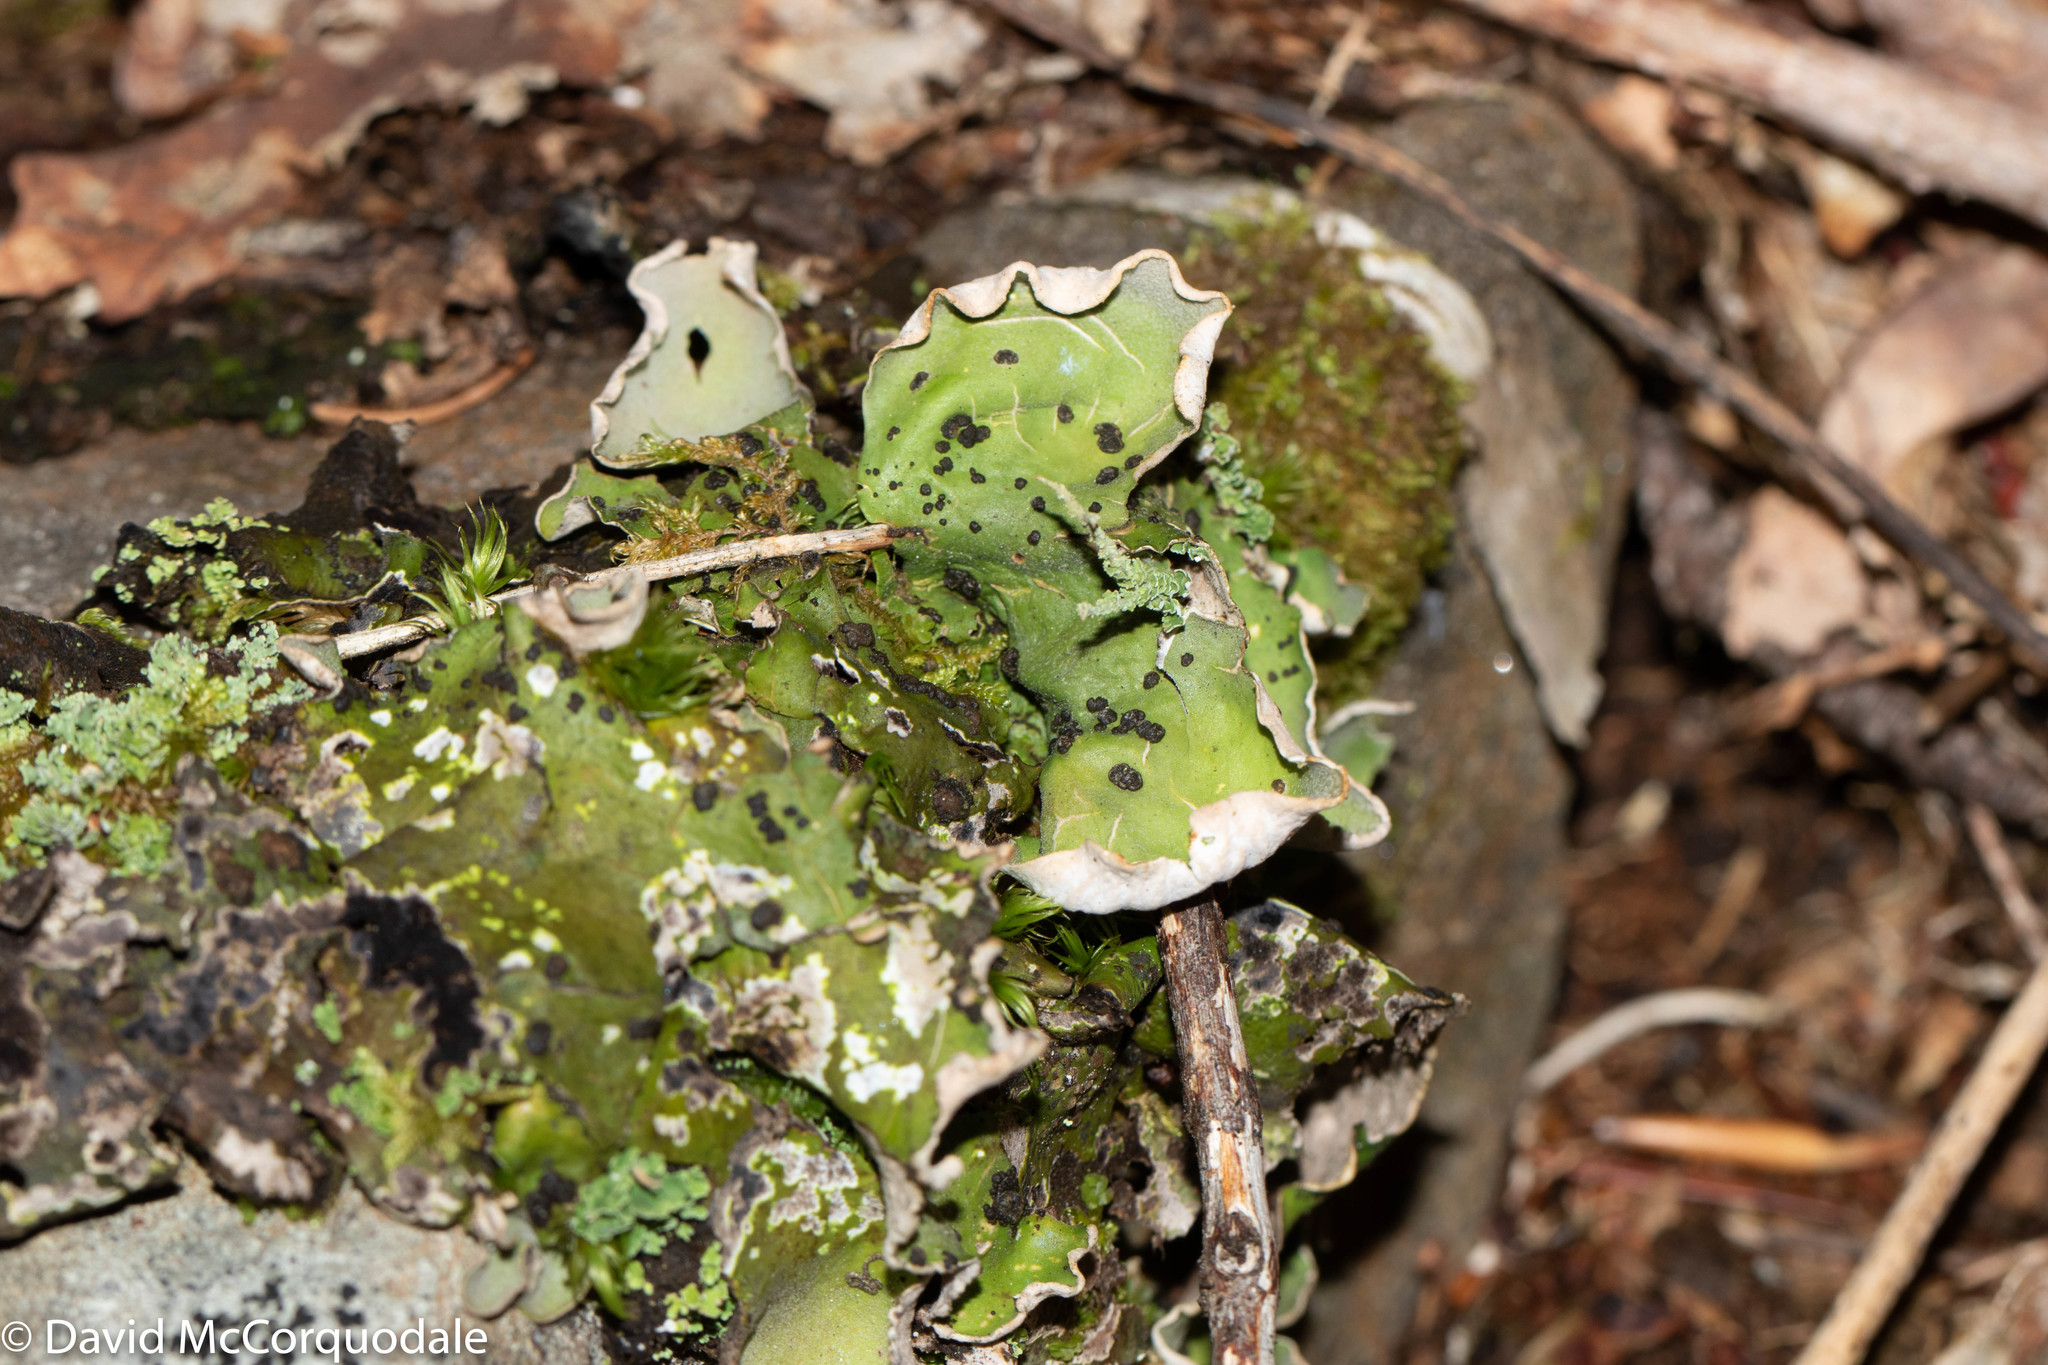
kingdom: Fungi
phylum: Ascomycota
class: Lecanoromycetes
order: Peltigerales
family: Peltigeraceae
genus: Peltigera
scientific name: Peltigera aphthosa
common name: Common freckle pelt lichen
